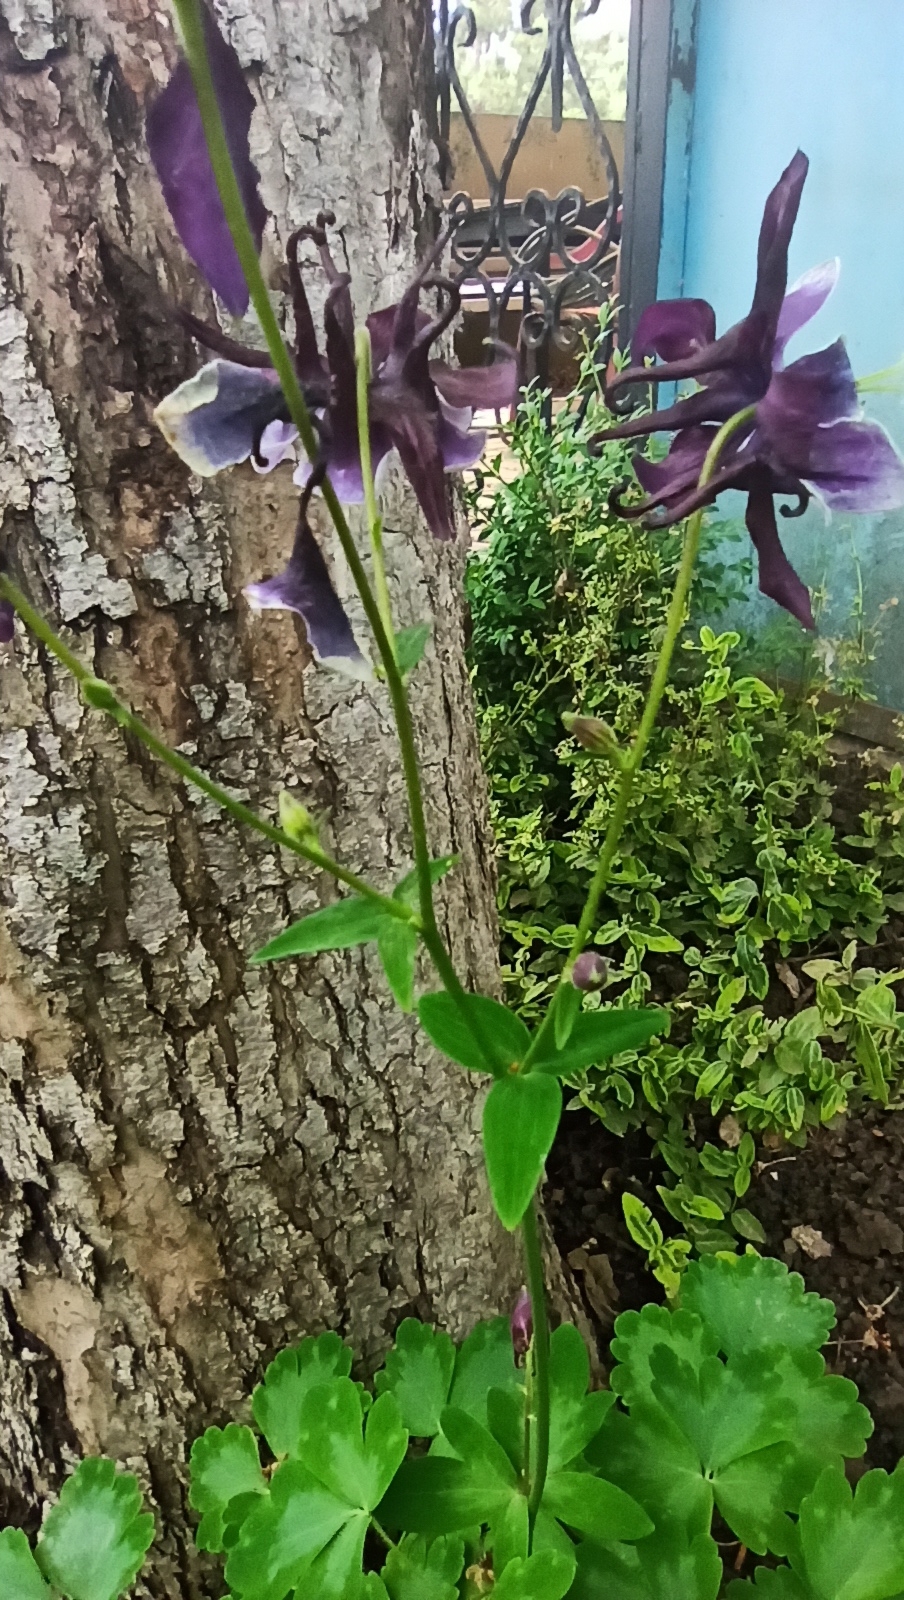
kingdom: Plantae
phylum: Tracheophyta
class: Magnoliopsida
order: Ranunculales
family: Ranunculaceae
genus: Aquilegia
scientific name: Aquilegia vulgaris
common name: Columbine
